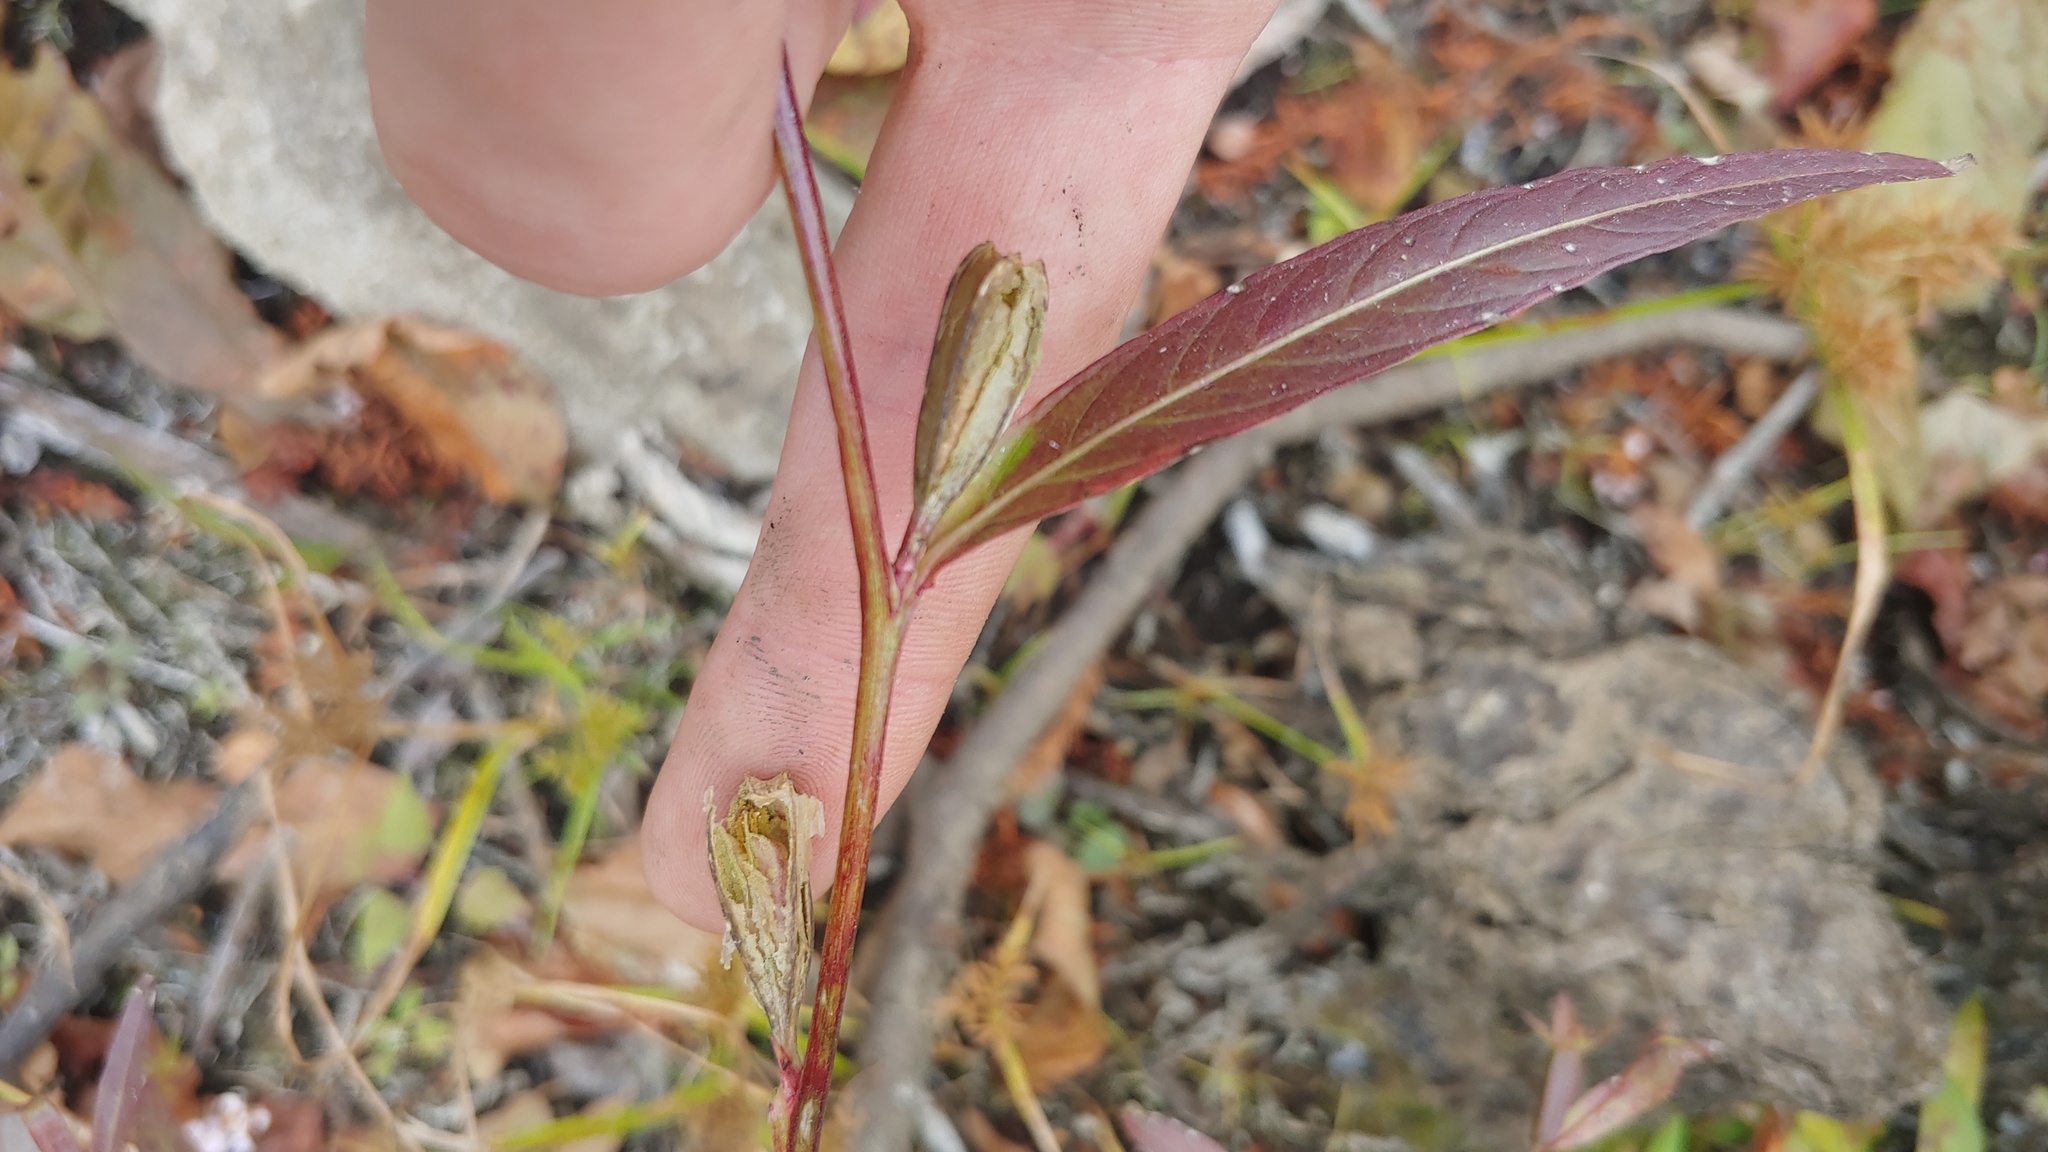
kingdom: Plantae
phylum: Tracheophyta
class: Magnoliopsida
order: Myrtales
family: Onagraceae
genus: Ludwigia
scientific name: Ludwigia decurrens
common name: Winged water-primrose
